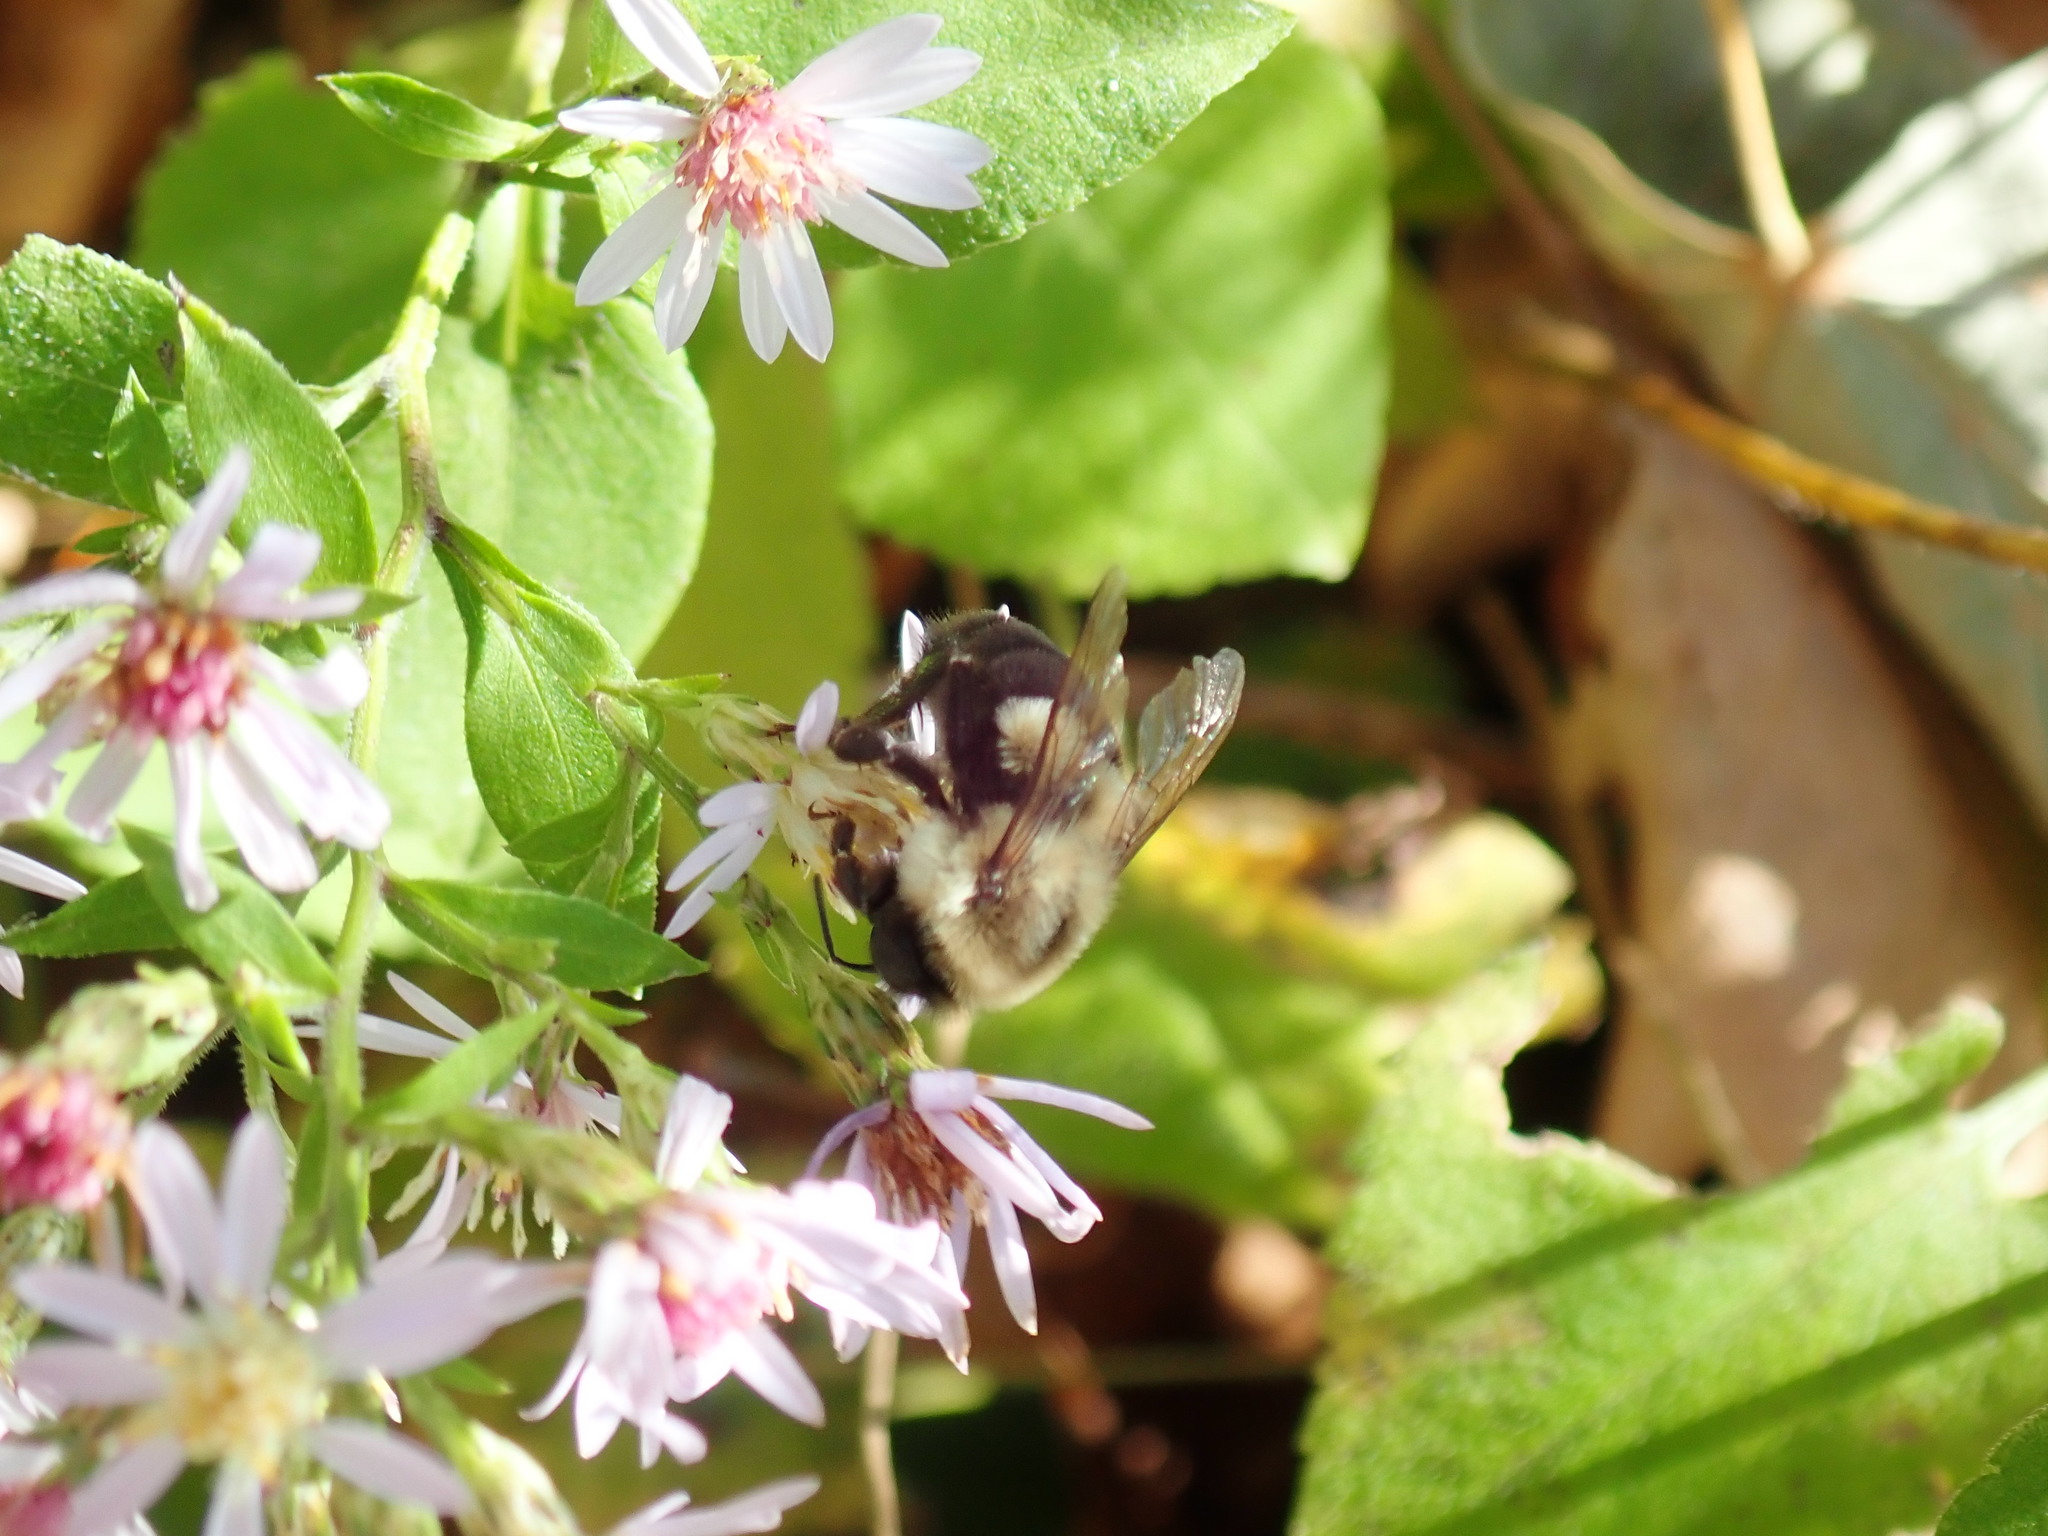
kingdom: Animalia
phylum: Arthropoda
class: Insecta
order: Hymenoptera
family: Apidae
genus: Bombus
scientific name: Bombus impatiens
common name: Common eastern bumble bee
